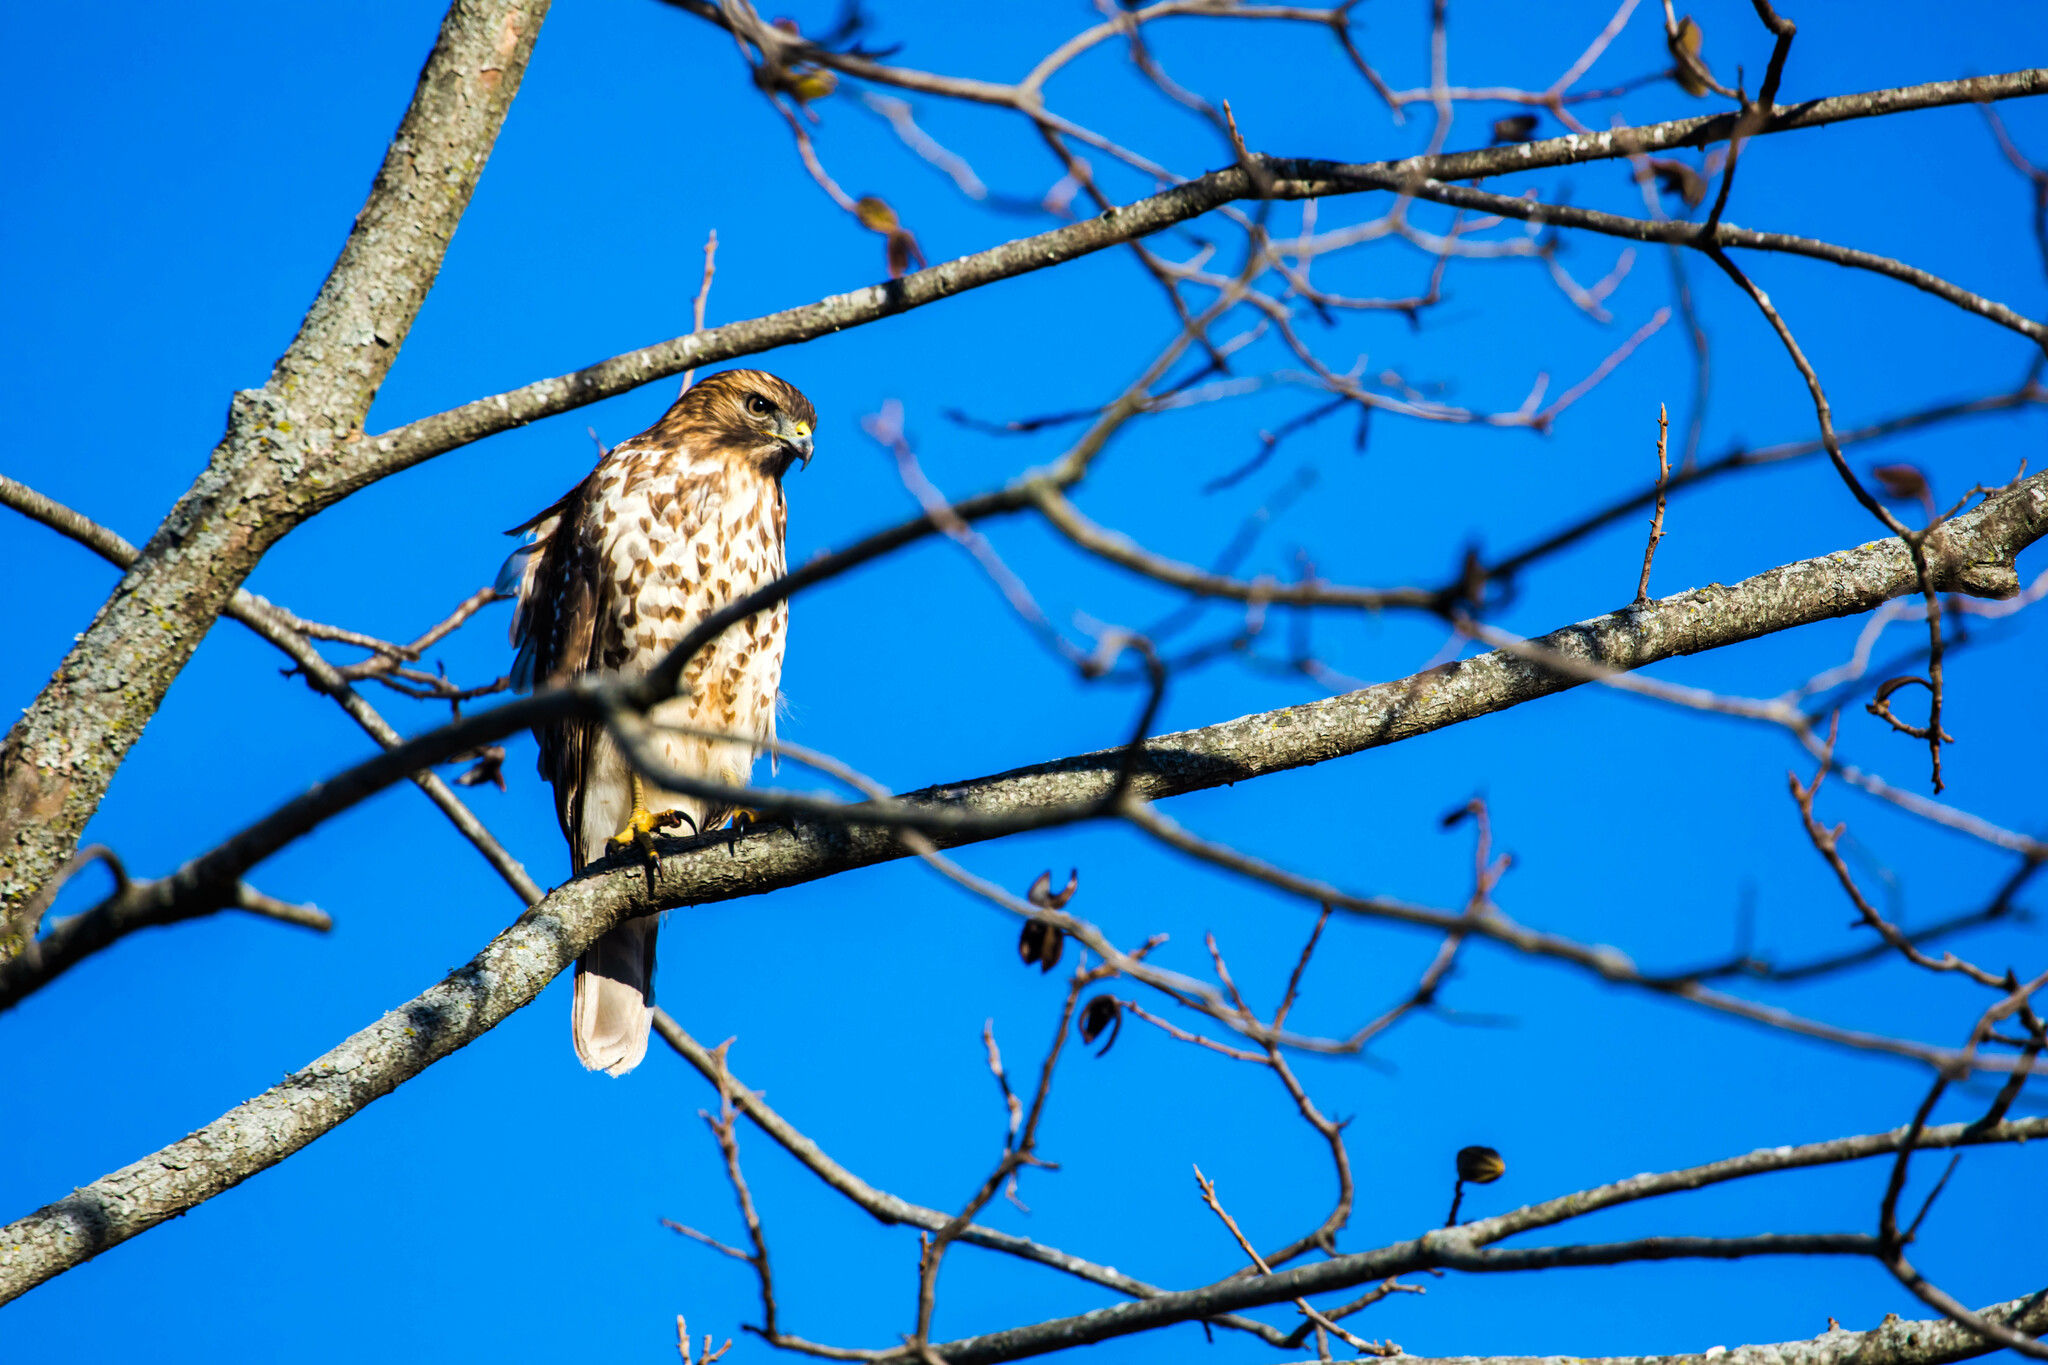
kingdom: Animalia
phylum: Chordata
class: Aves
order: Accipitriformes
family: Accipitridae
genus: Buteo
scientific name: Buteo lineatus
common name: Red-shouldered hawk
